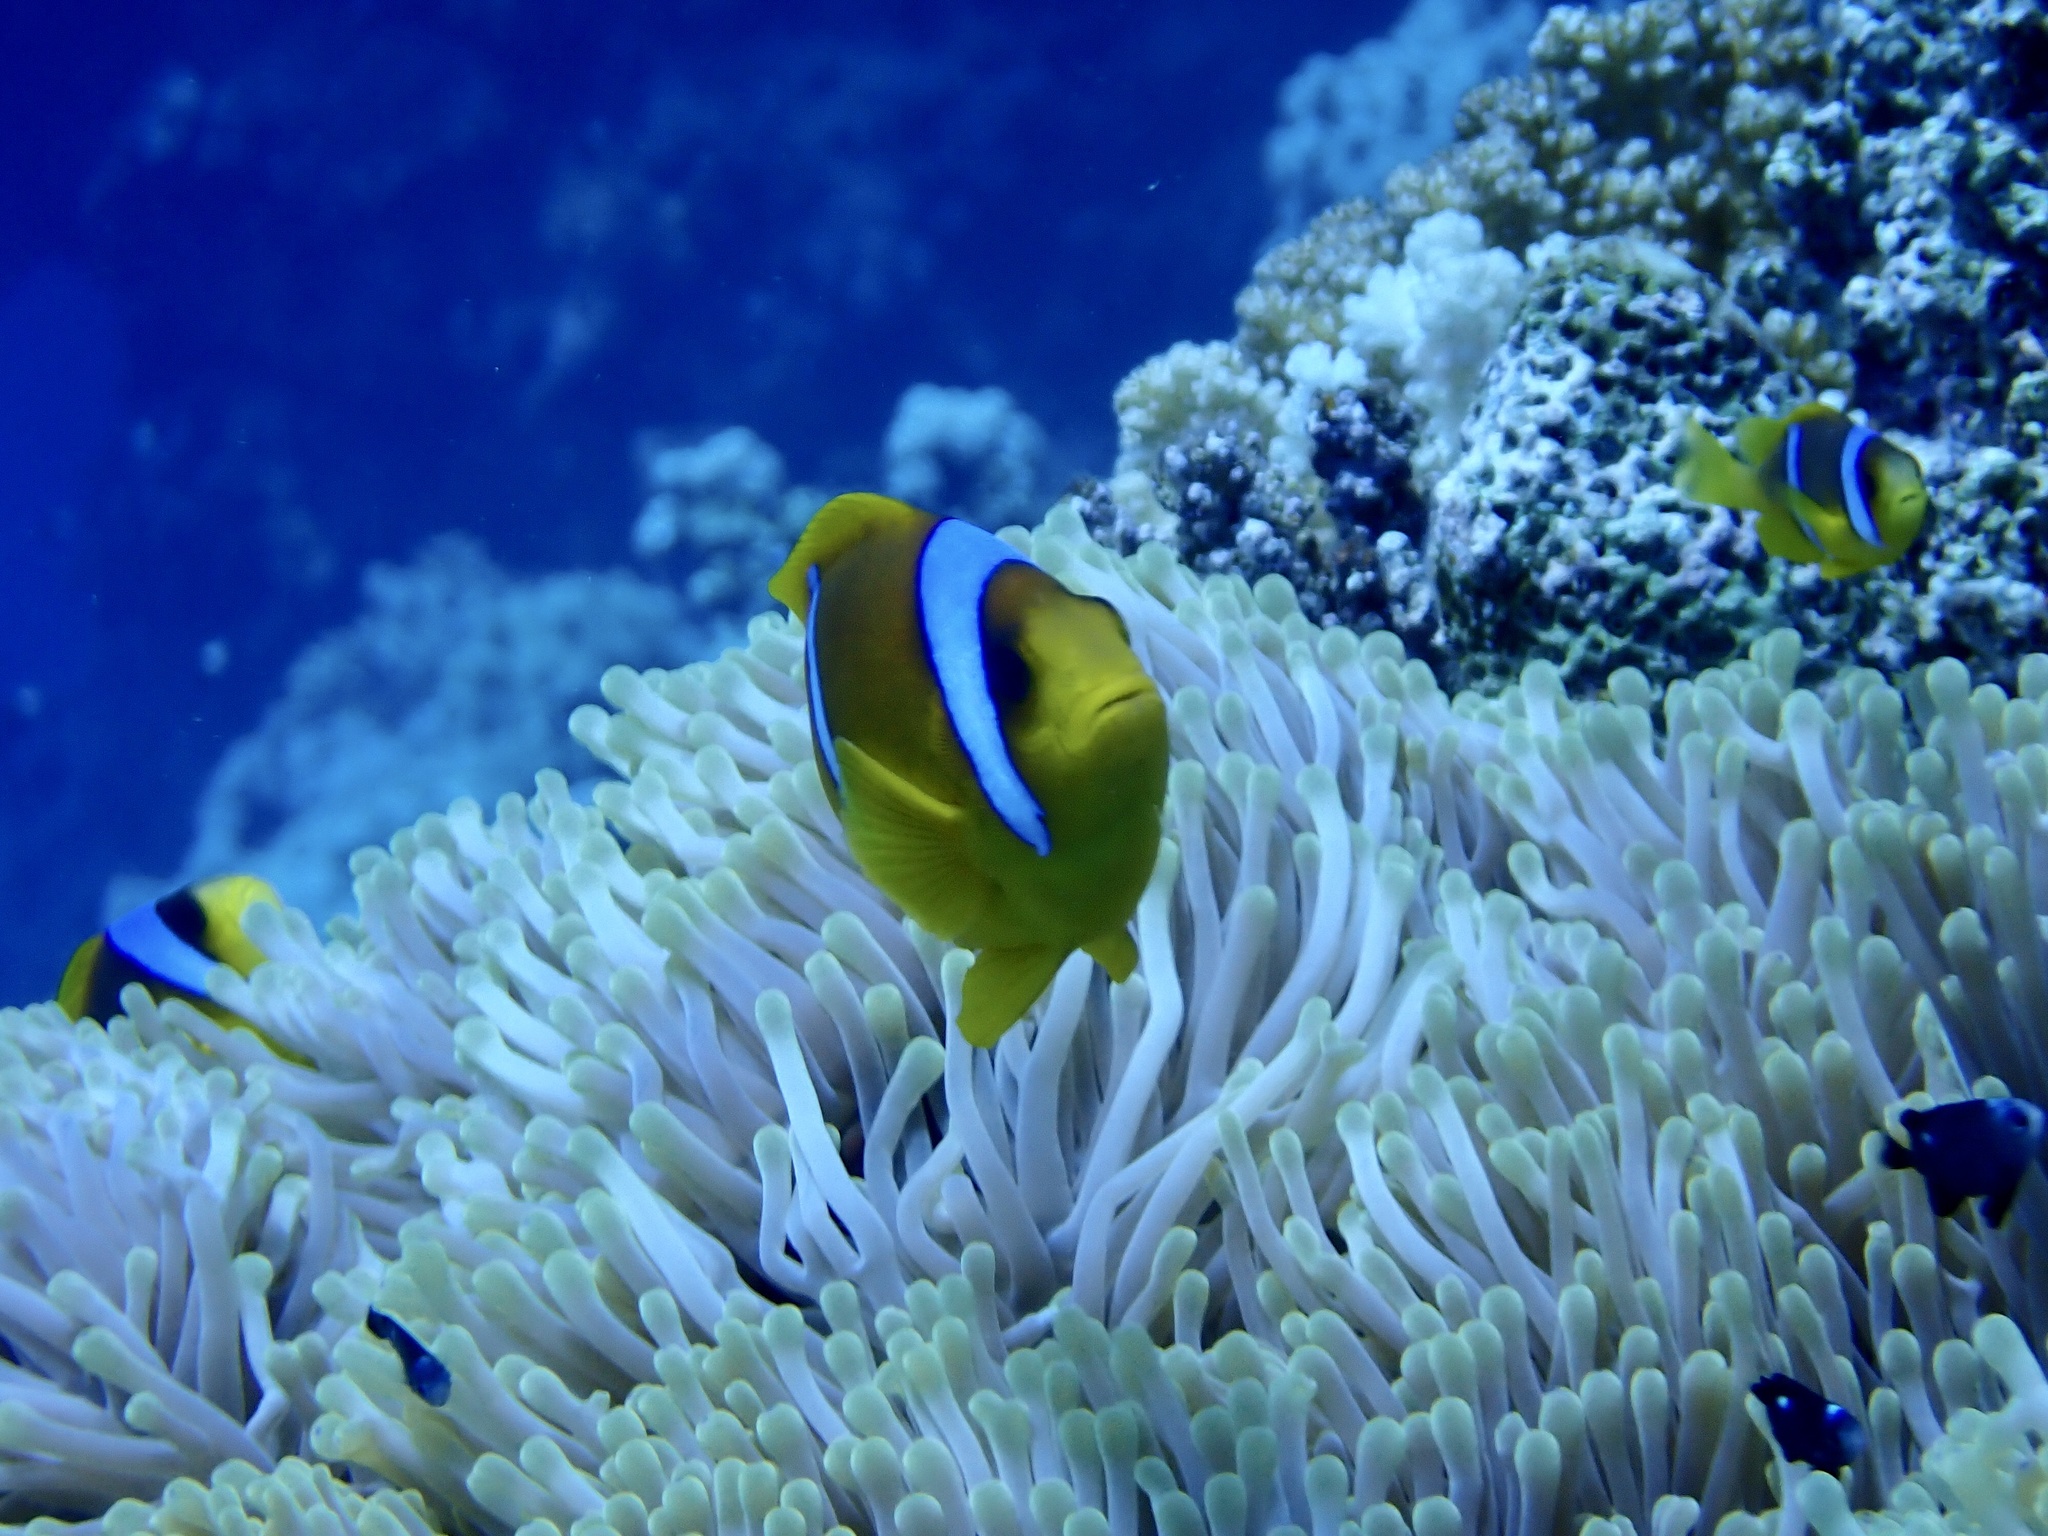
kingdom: Animalia
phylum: Chordata
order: Perciformes
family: Pomacentridae
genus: Amphiprion
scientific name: Amphiprion bicinctus
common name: Two-banded anemonefish
